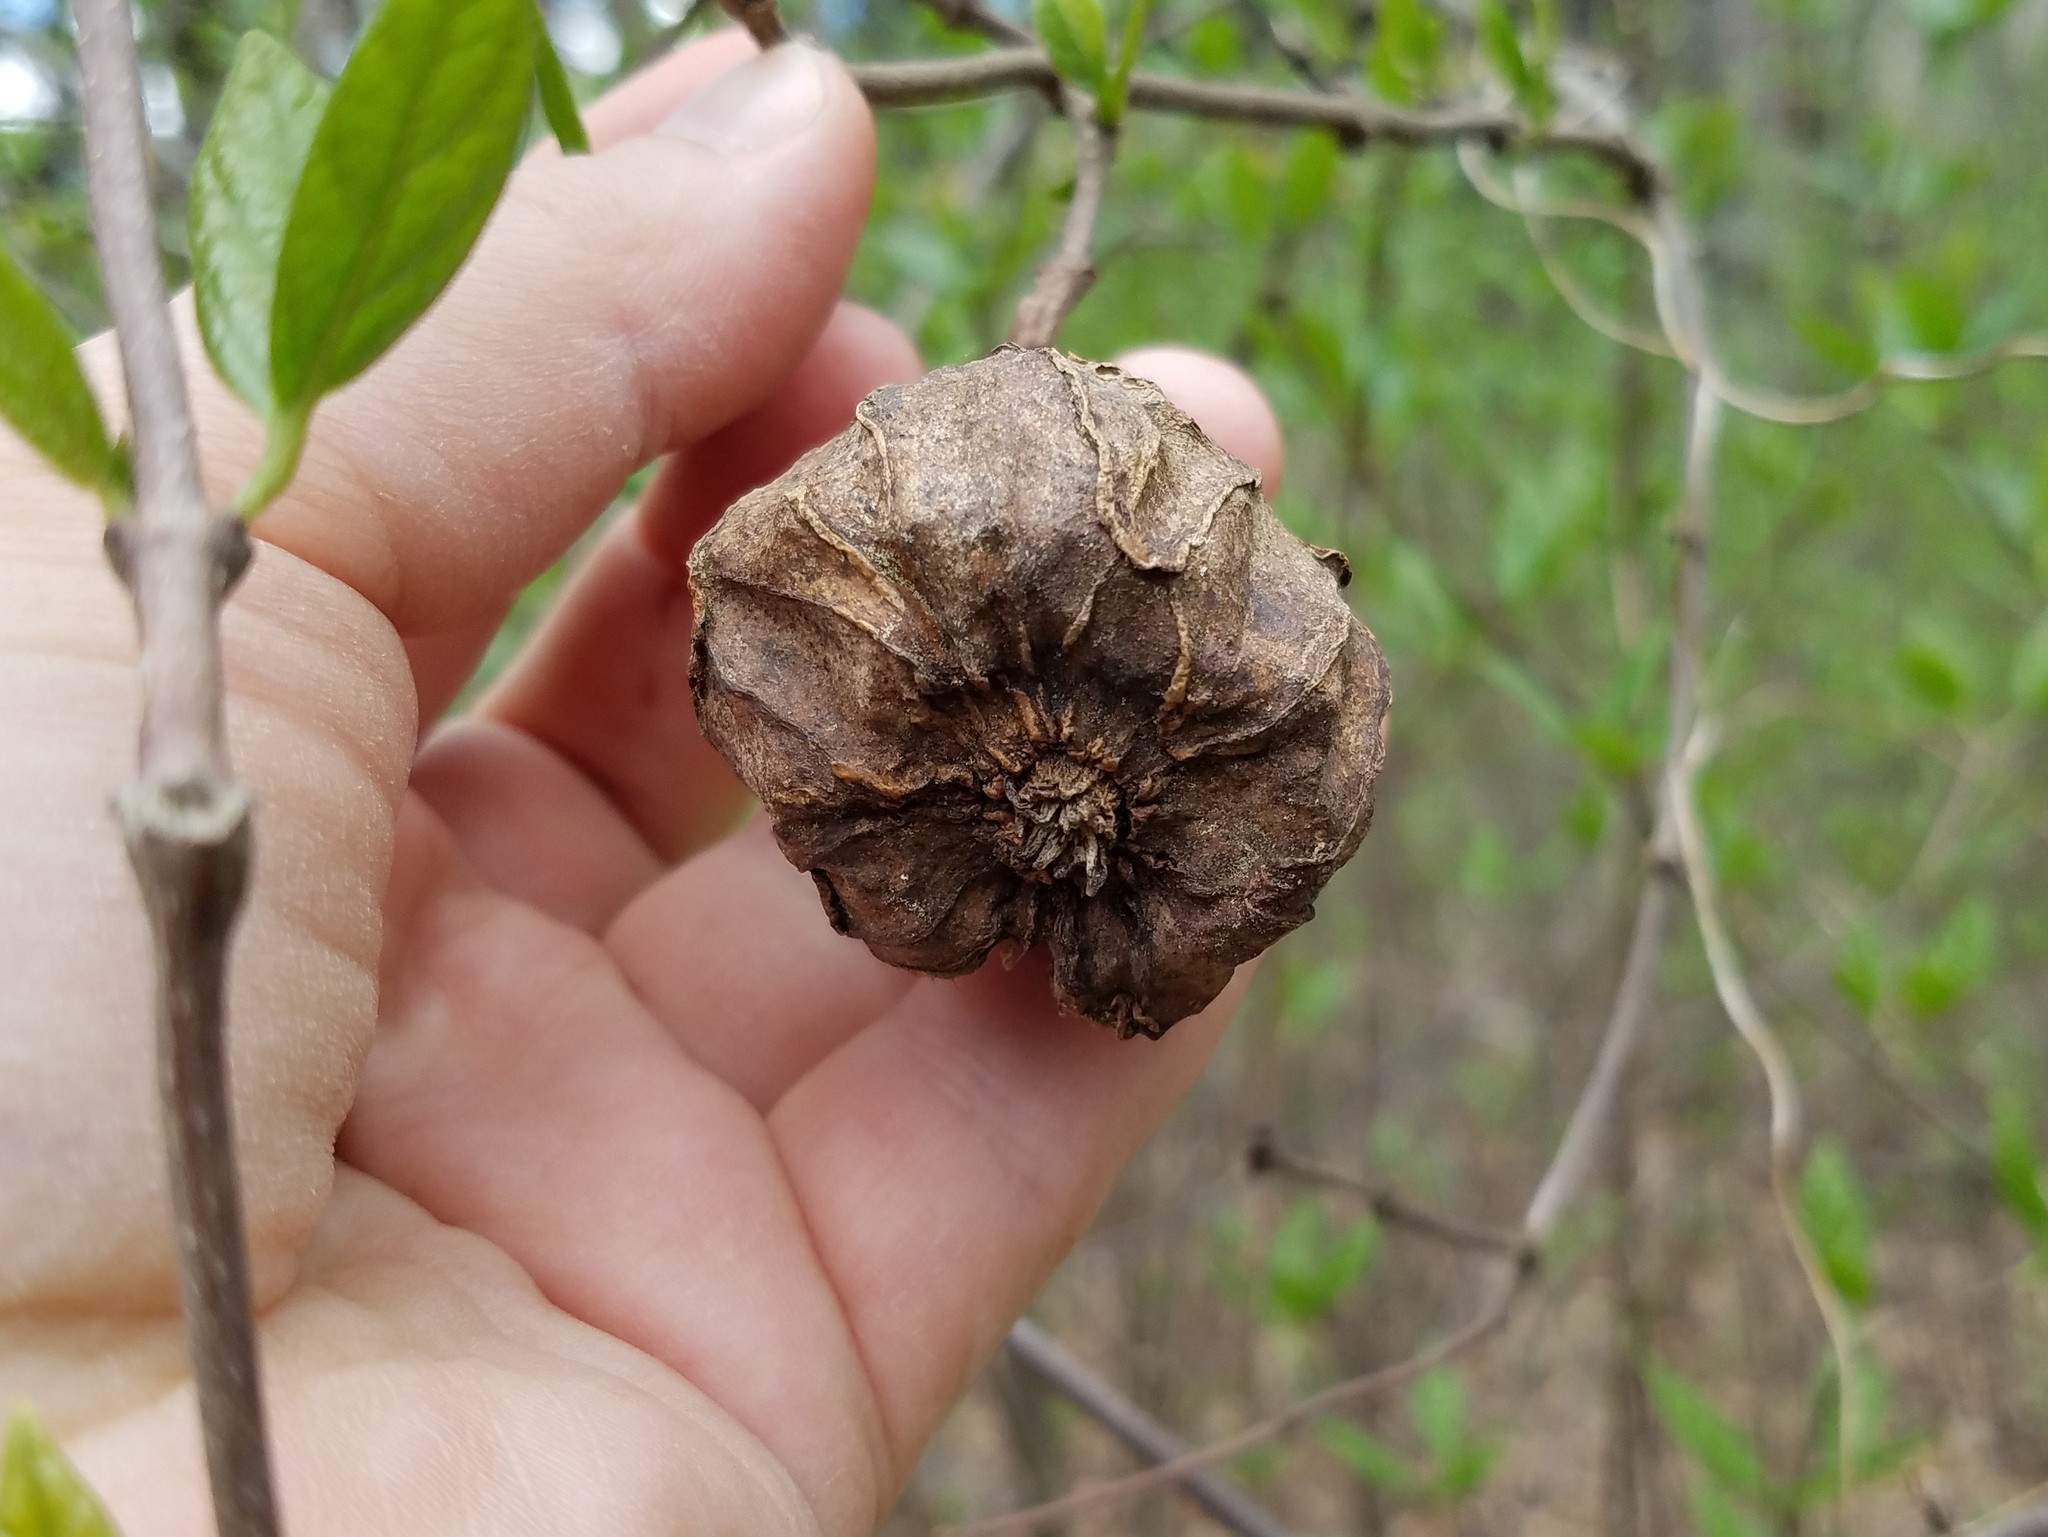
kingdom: Plantae
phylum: Tracheophyta
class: Magnoliopsida
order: Laurales
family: Calycanthaceae
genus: Calycanthus
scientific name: Calycanthus floridus
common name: Carolina-allspice
